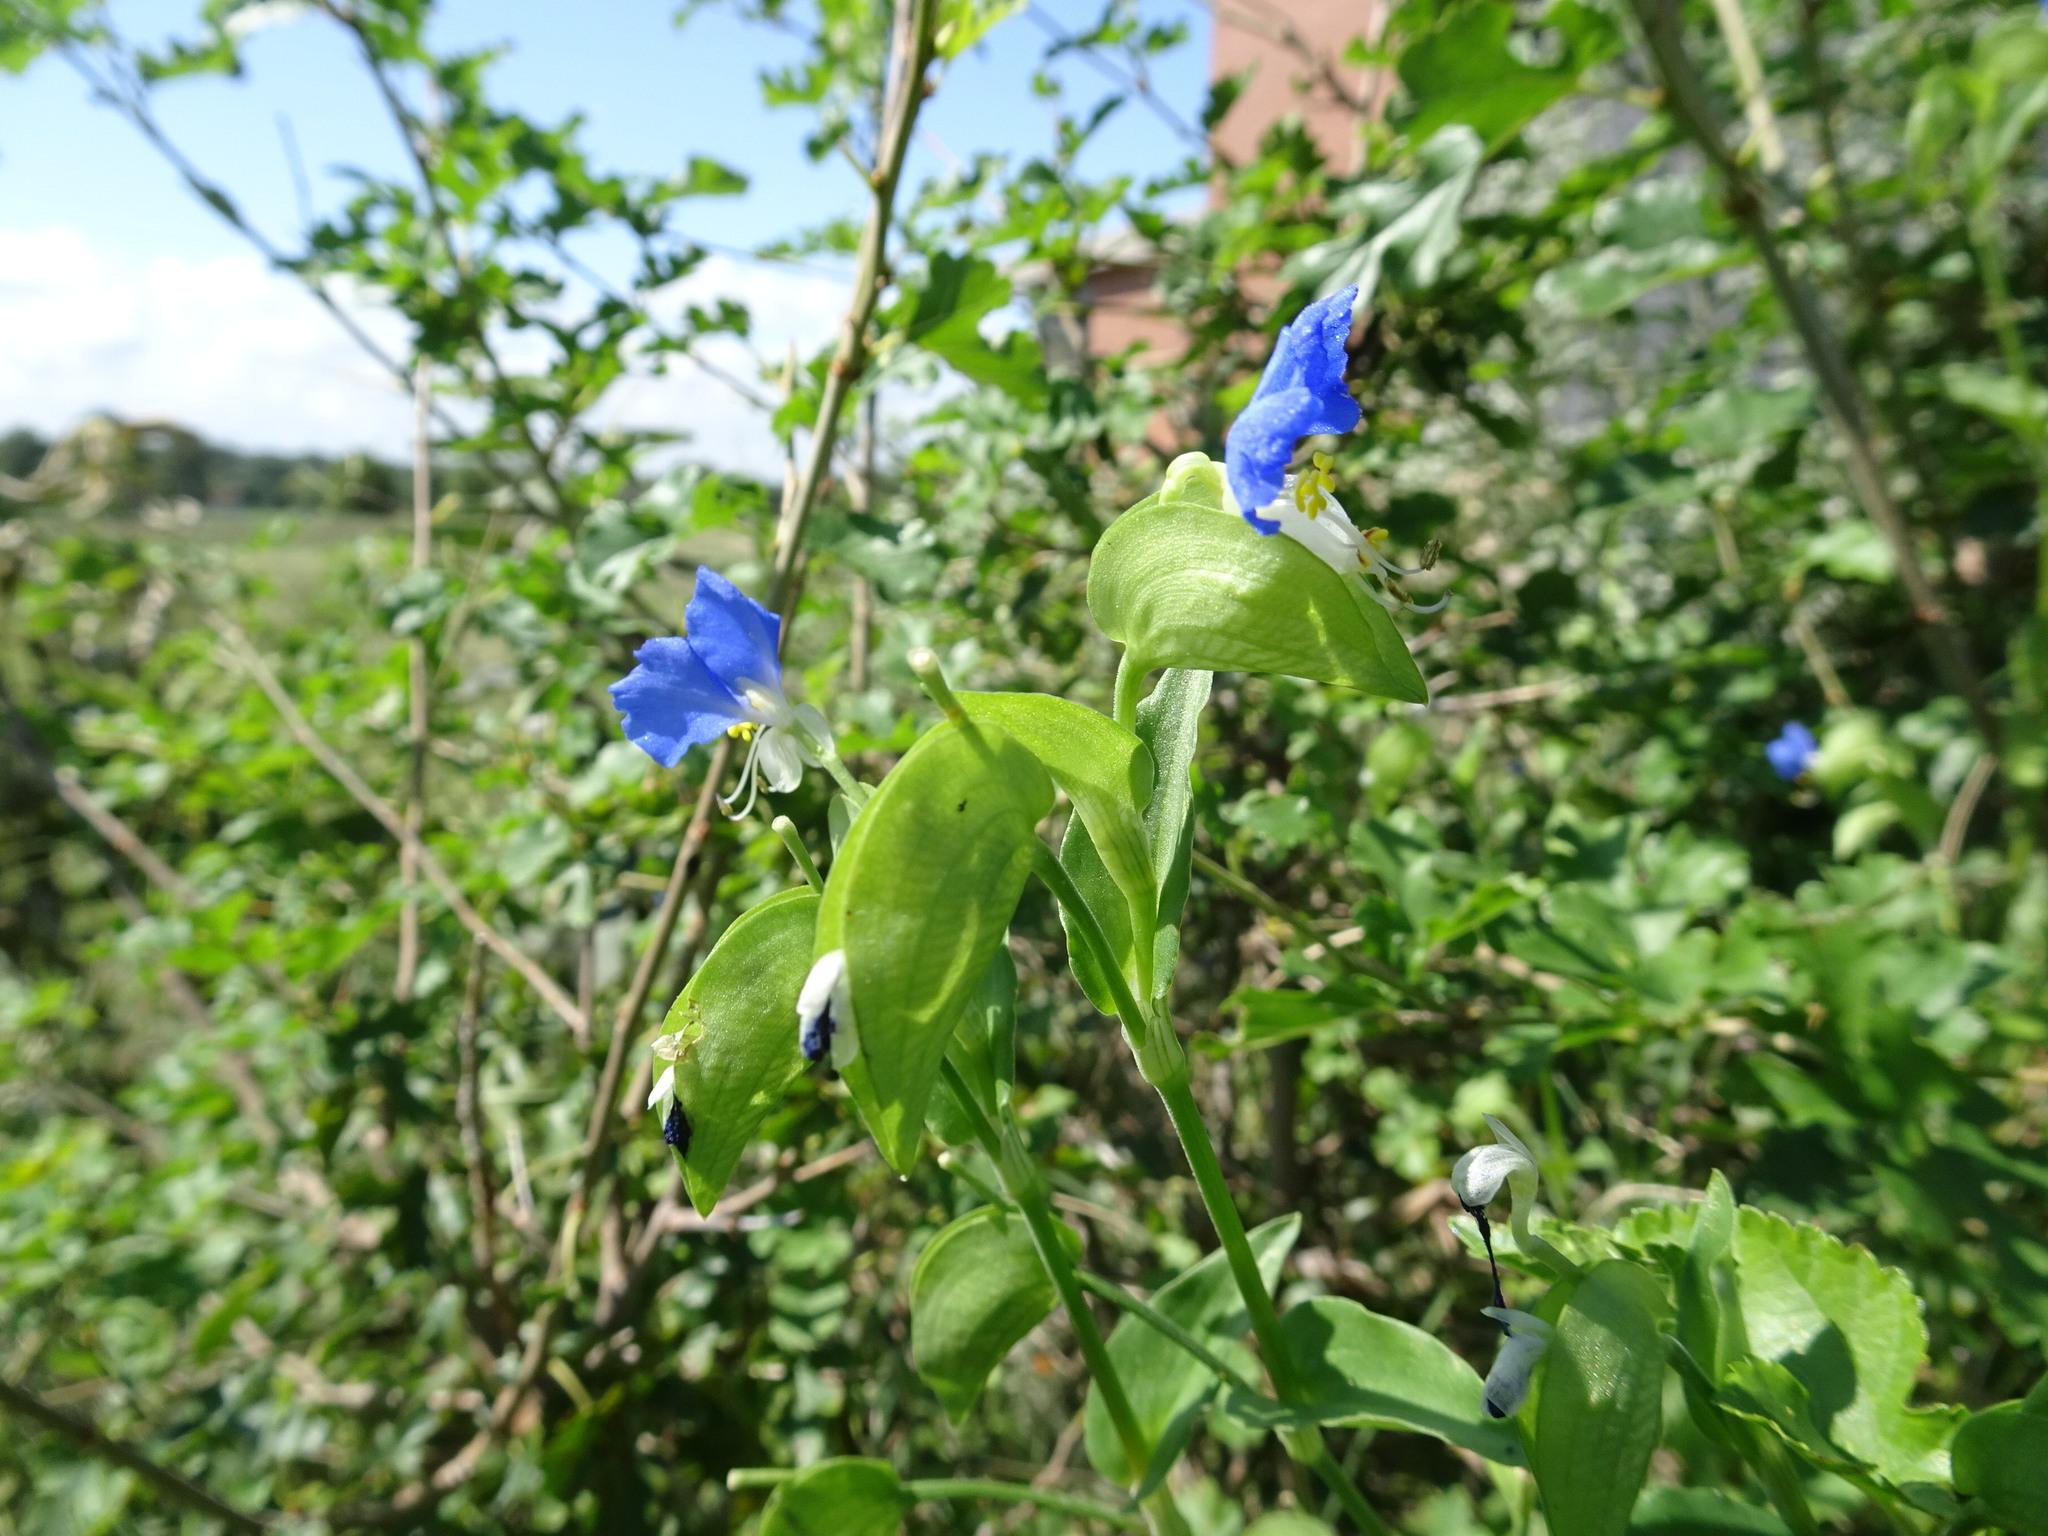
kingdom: Plantae
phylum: Tracheophyta
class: Liliopsida
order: Commelinales
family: Commelinaceae
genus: Commelina
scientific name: Commelina communis
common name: Asiatic dayflower
